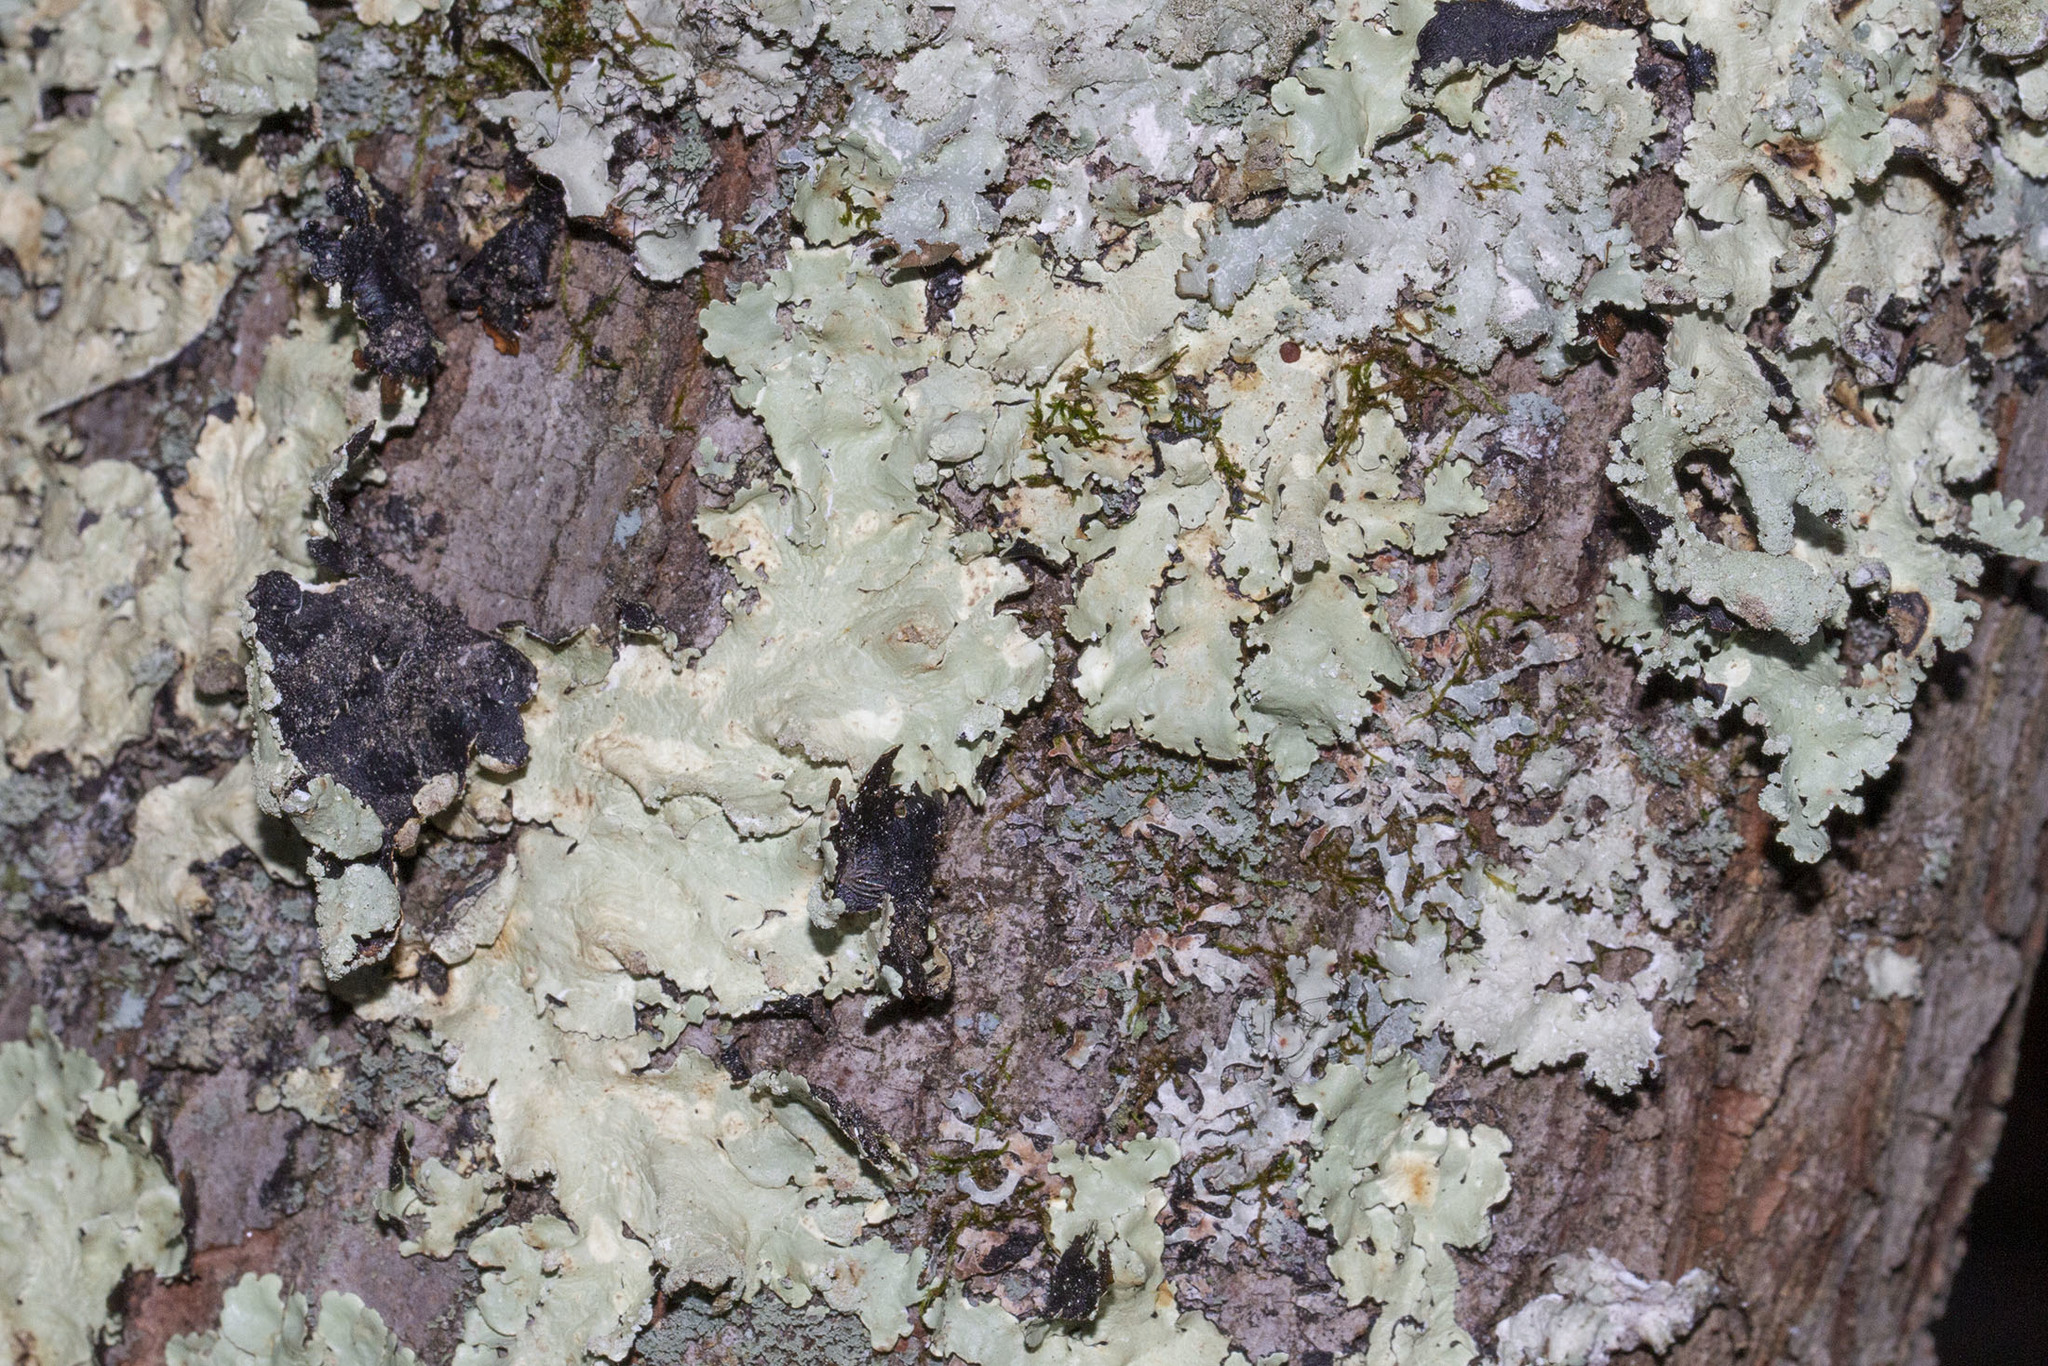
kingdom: Fungi
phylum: Ascomycota
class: Lecanoromycetes
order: Lecanorales
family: Parmeliaceae
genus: Flavoparmelia
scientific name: Flavoparmelia caperata
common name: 40-mile per hour lichen
